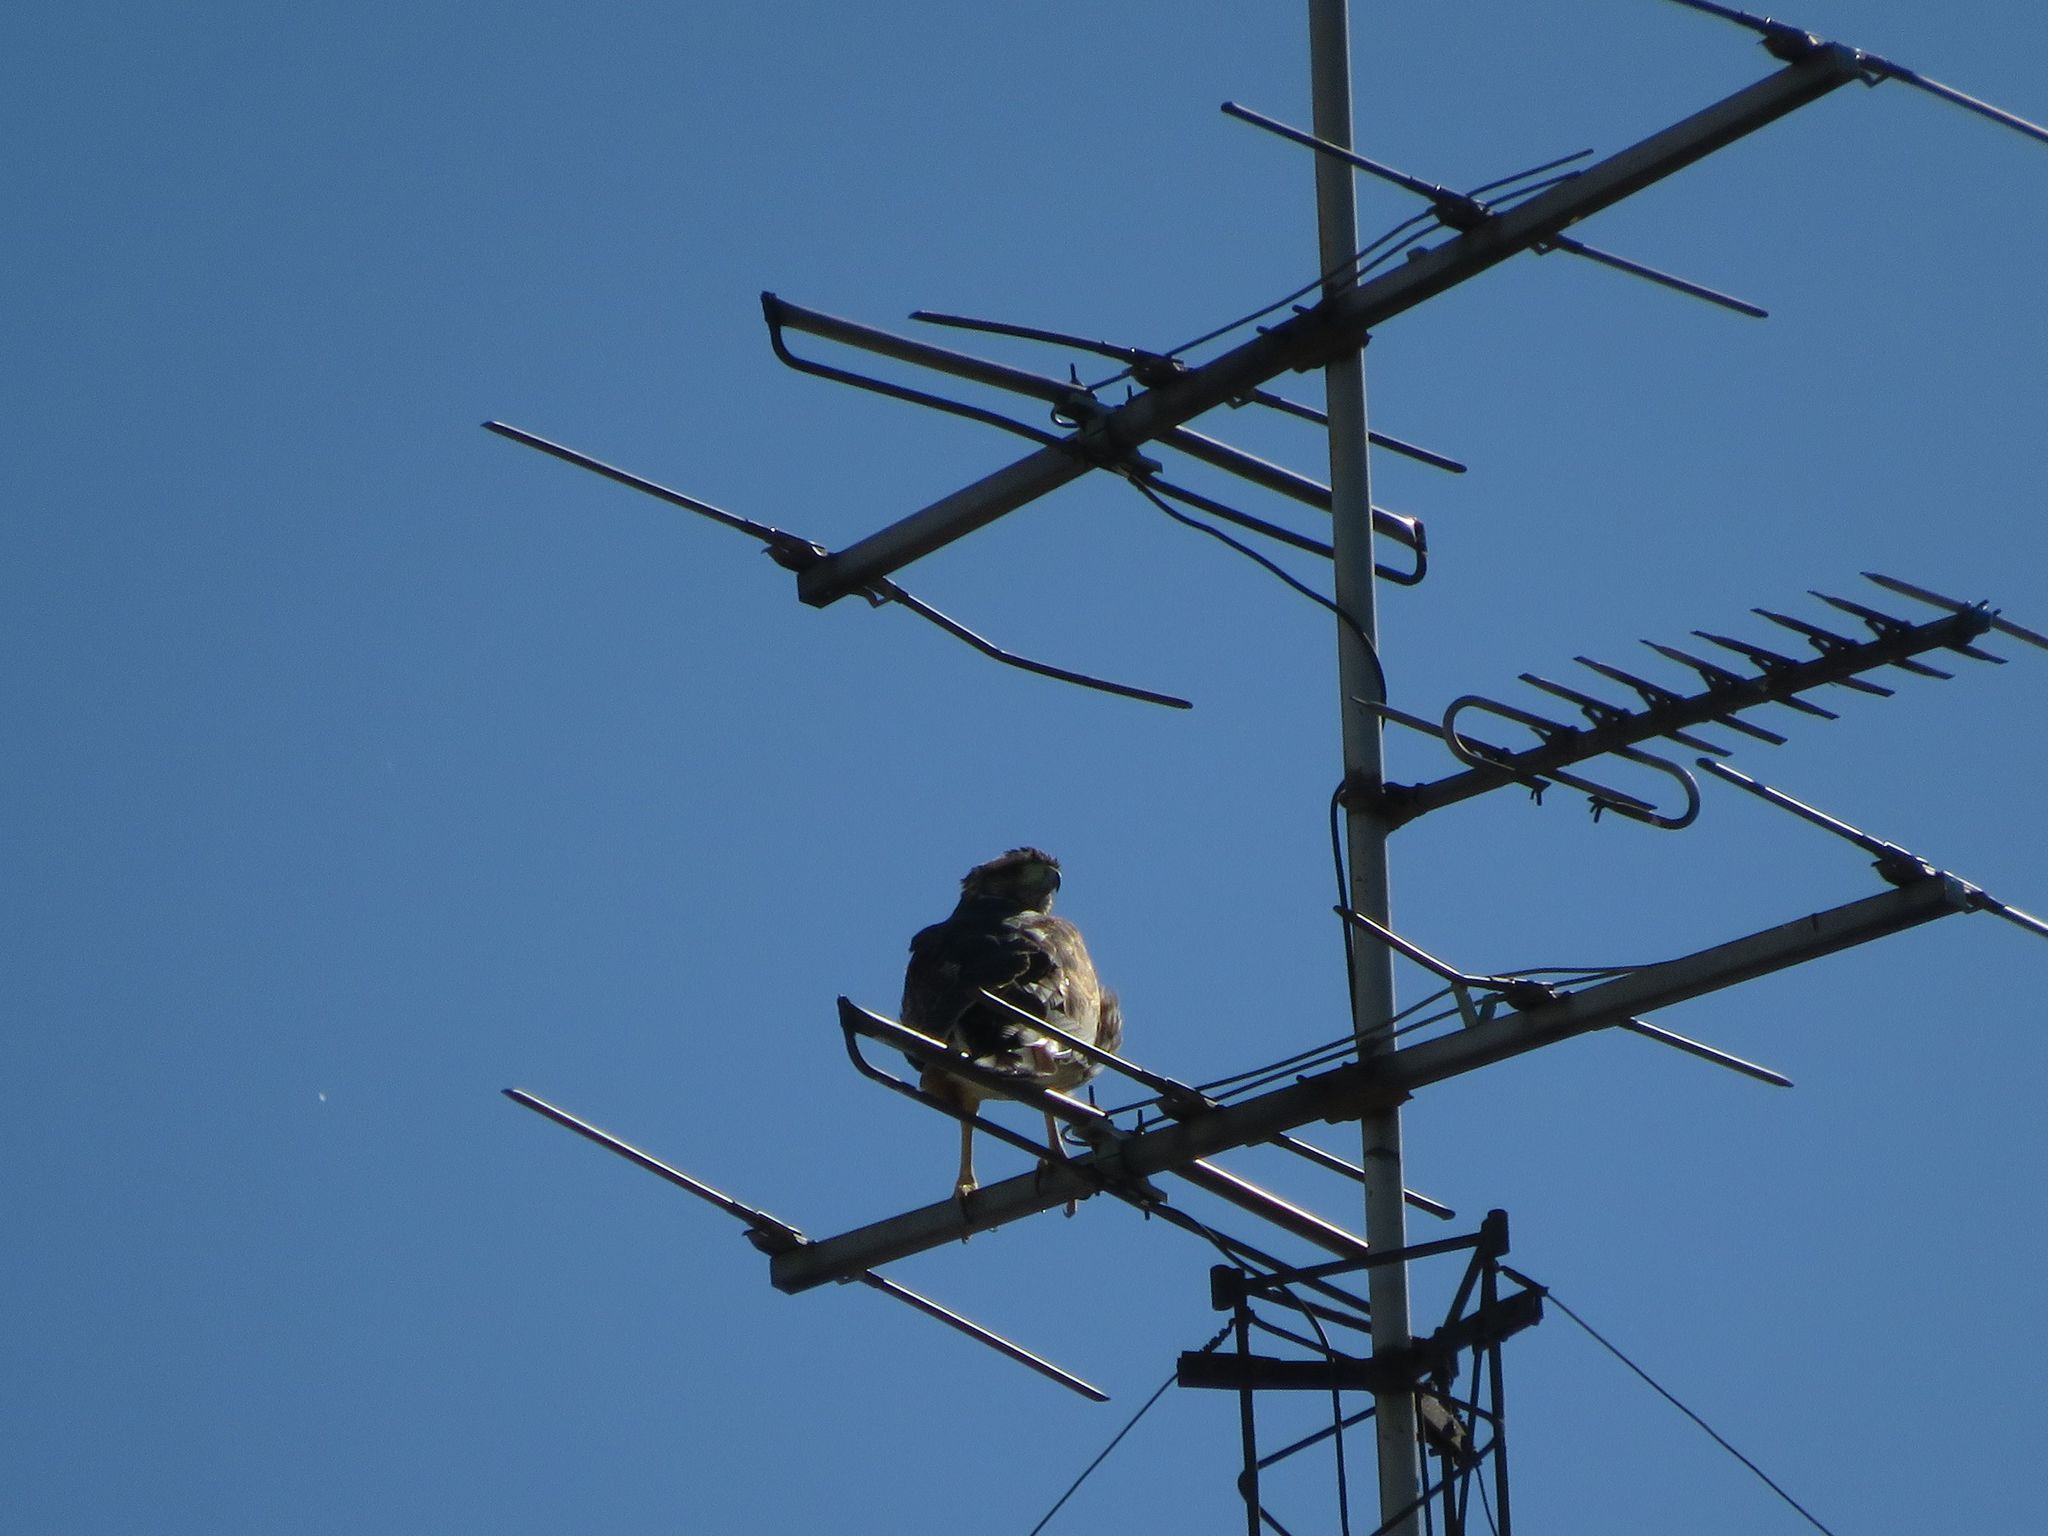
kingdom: Animalia
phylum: Chordata
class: Aves
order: Accipitriformes
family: Accipitridae
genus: Parabuteo
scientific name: Parabuteo unicinctus
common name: Harris's hawk
